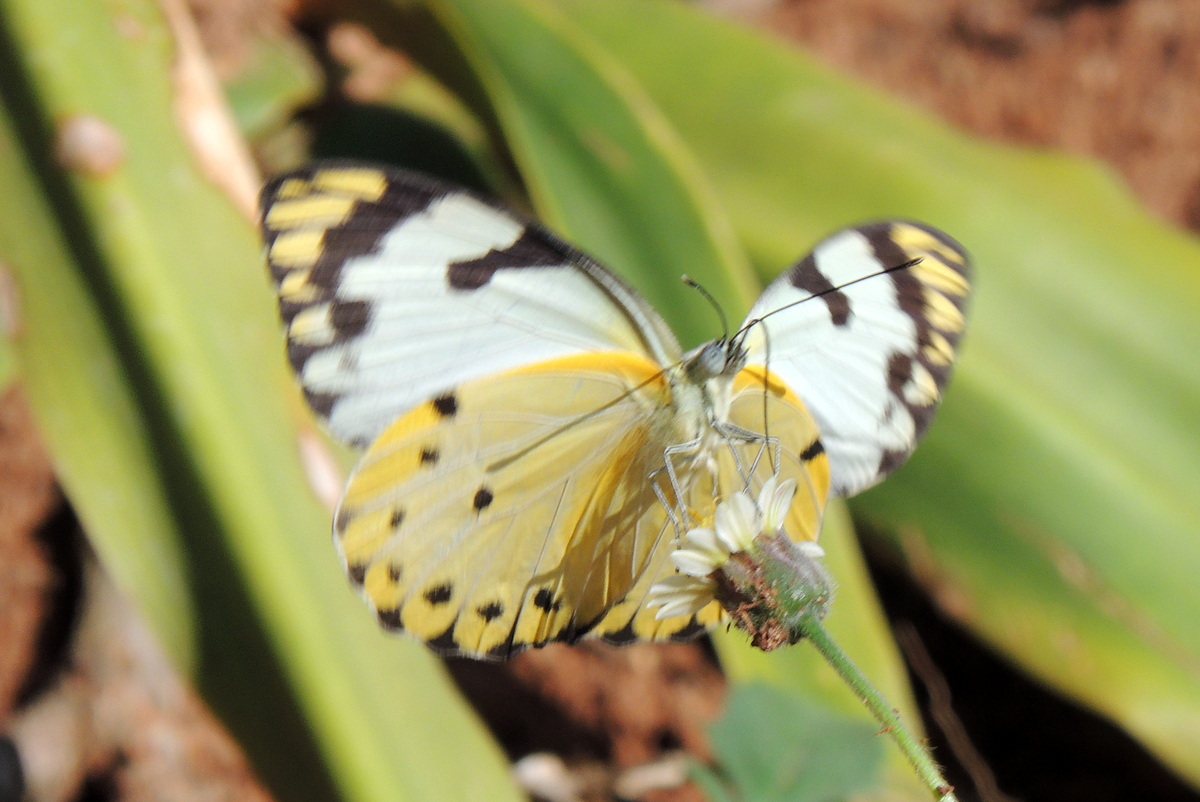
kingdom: Animalia
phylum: Arthropoda
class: Insecta
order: Lepidoptera
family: Pieridae
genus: Belenois
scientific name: Belenois calypso
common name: Calypso caper white
